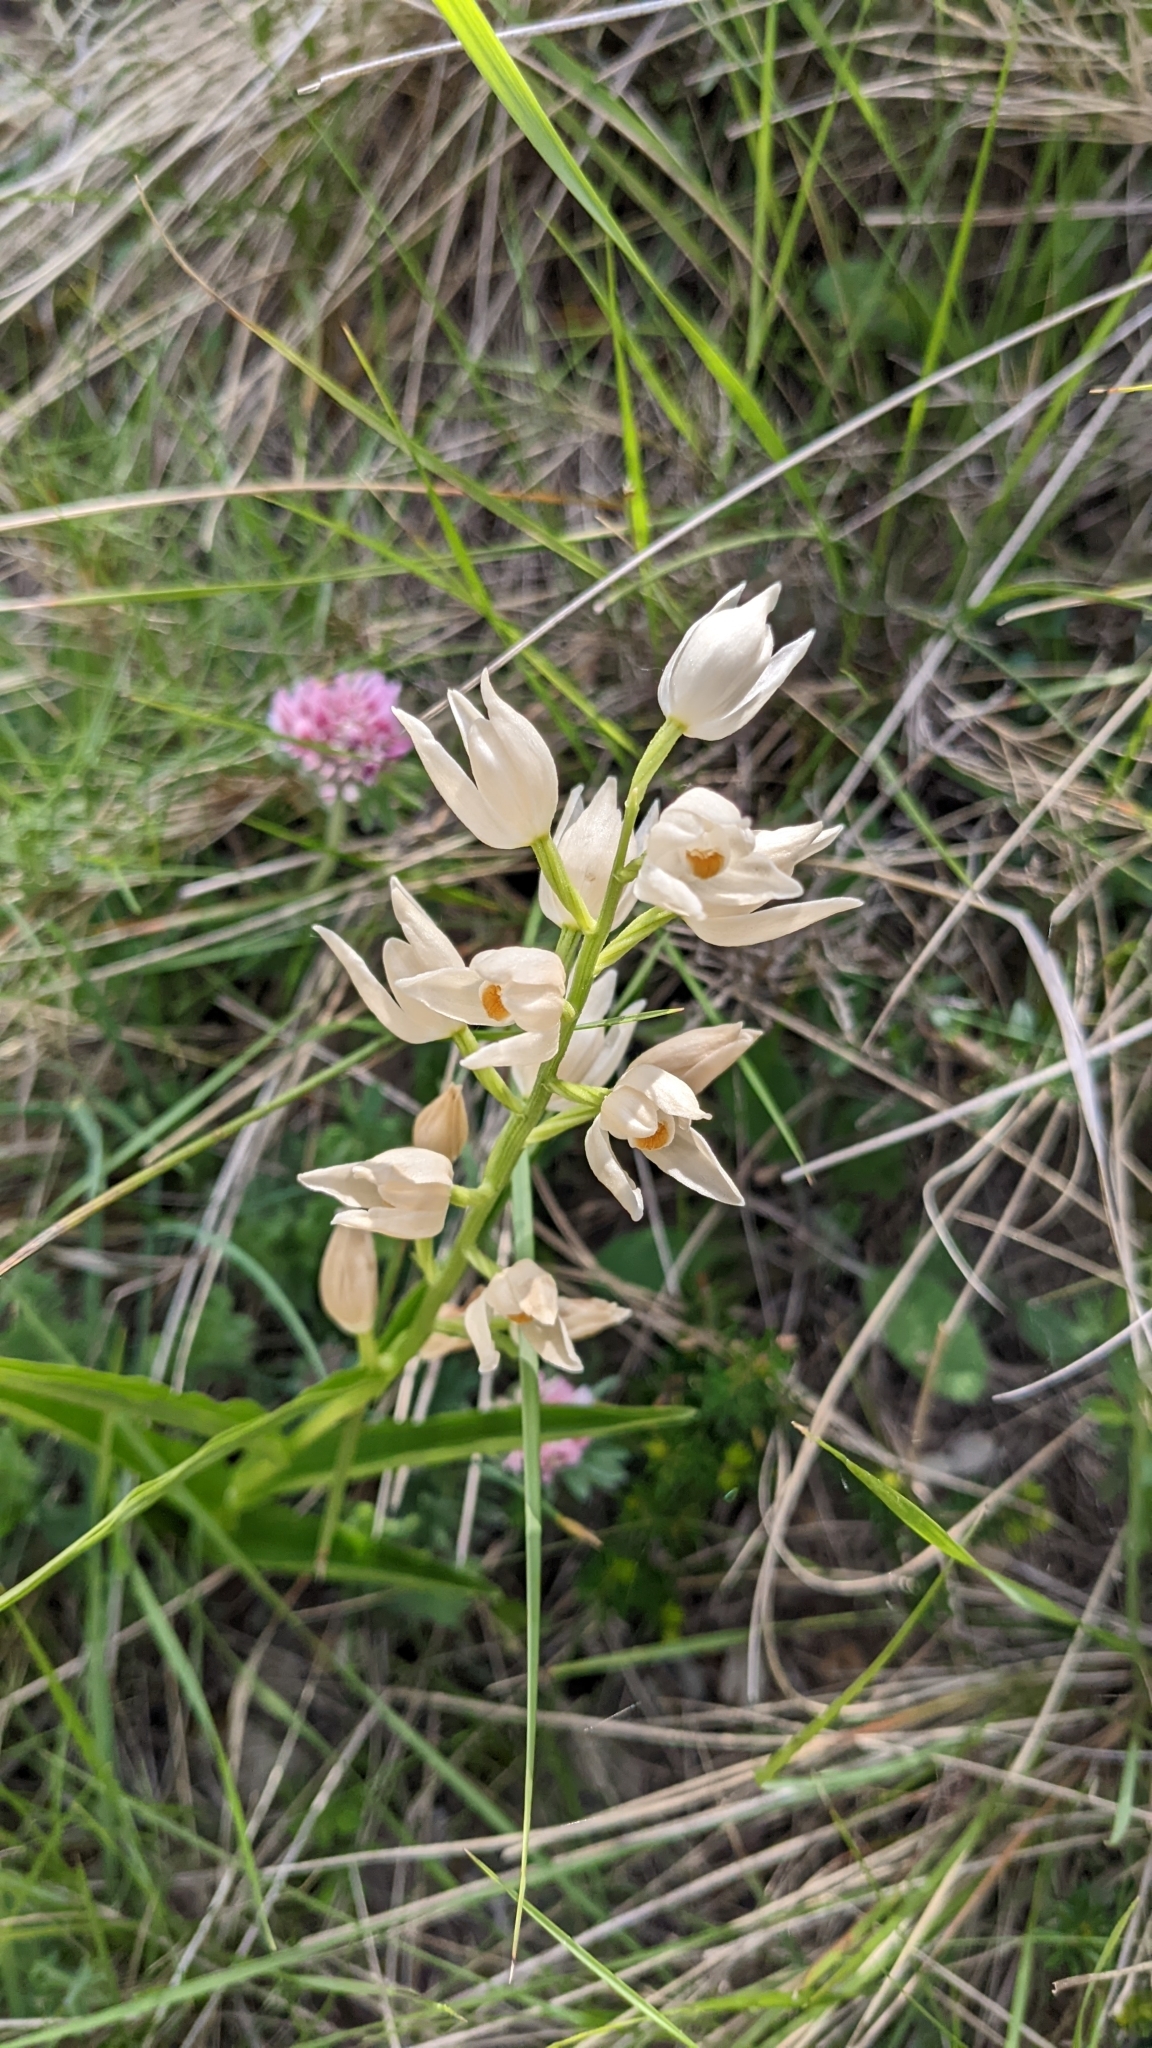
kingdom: Plantae
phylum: Tracheophyta
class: Liliopsida
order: Asparagales
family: Orchidaceae
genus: Cephalanthera
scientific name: Cephalanthera longifolia
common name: Narrow-leaved helleborine
